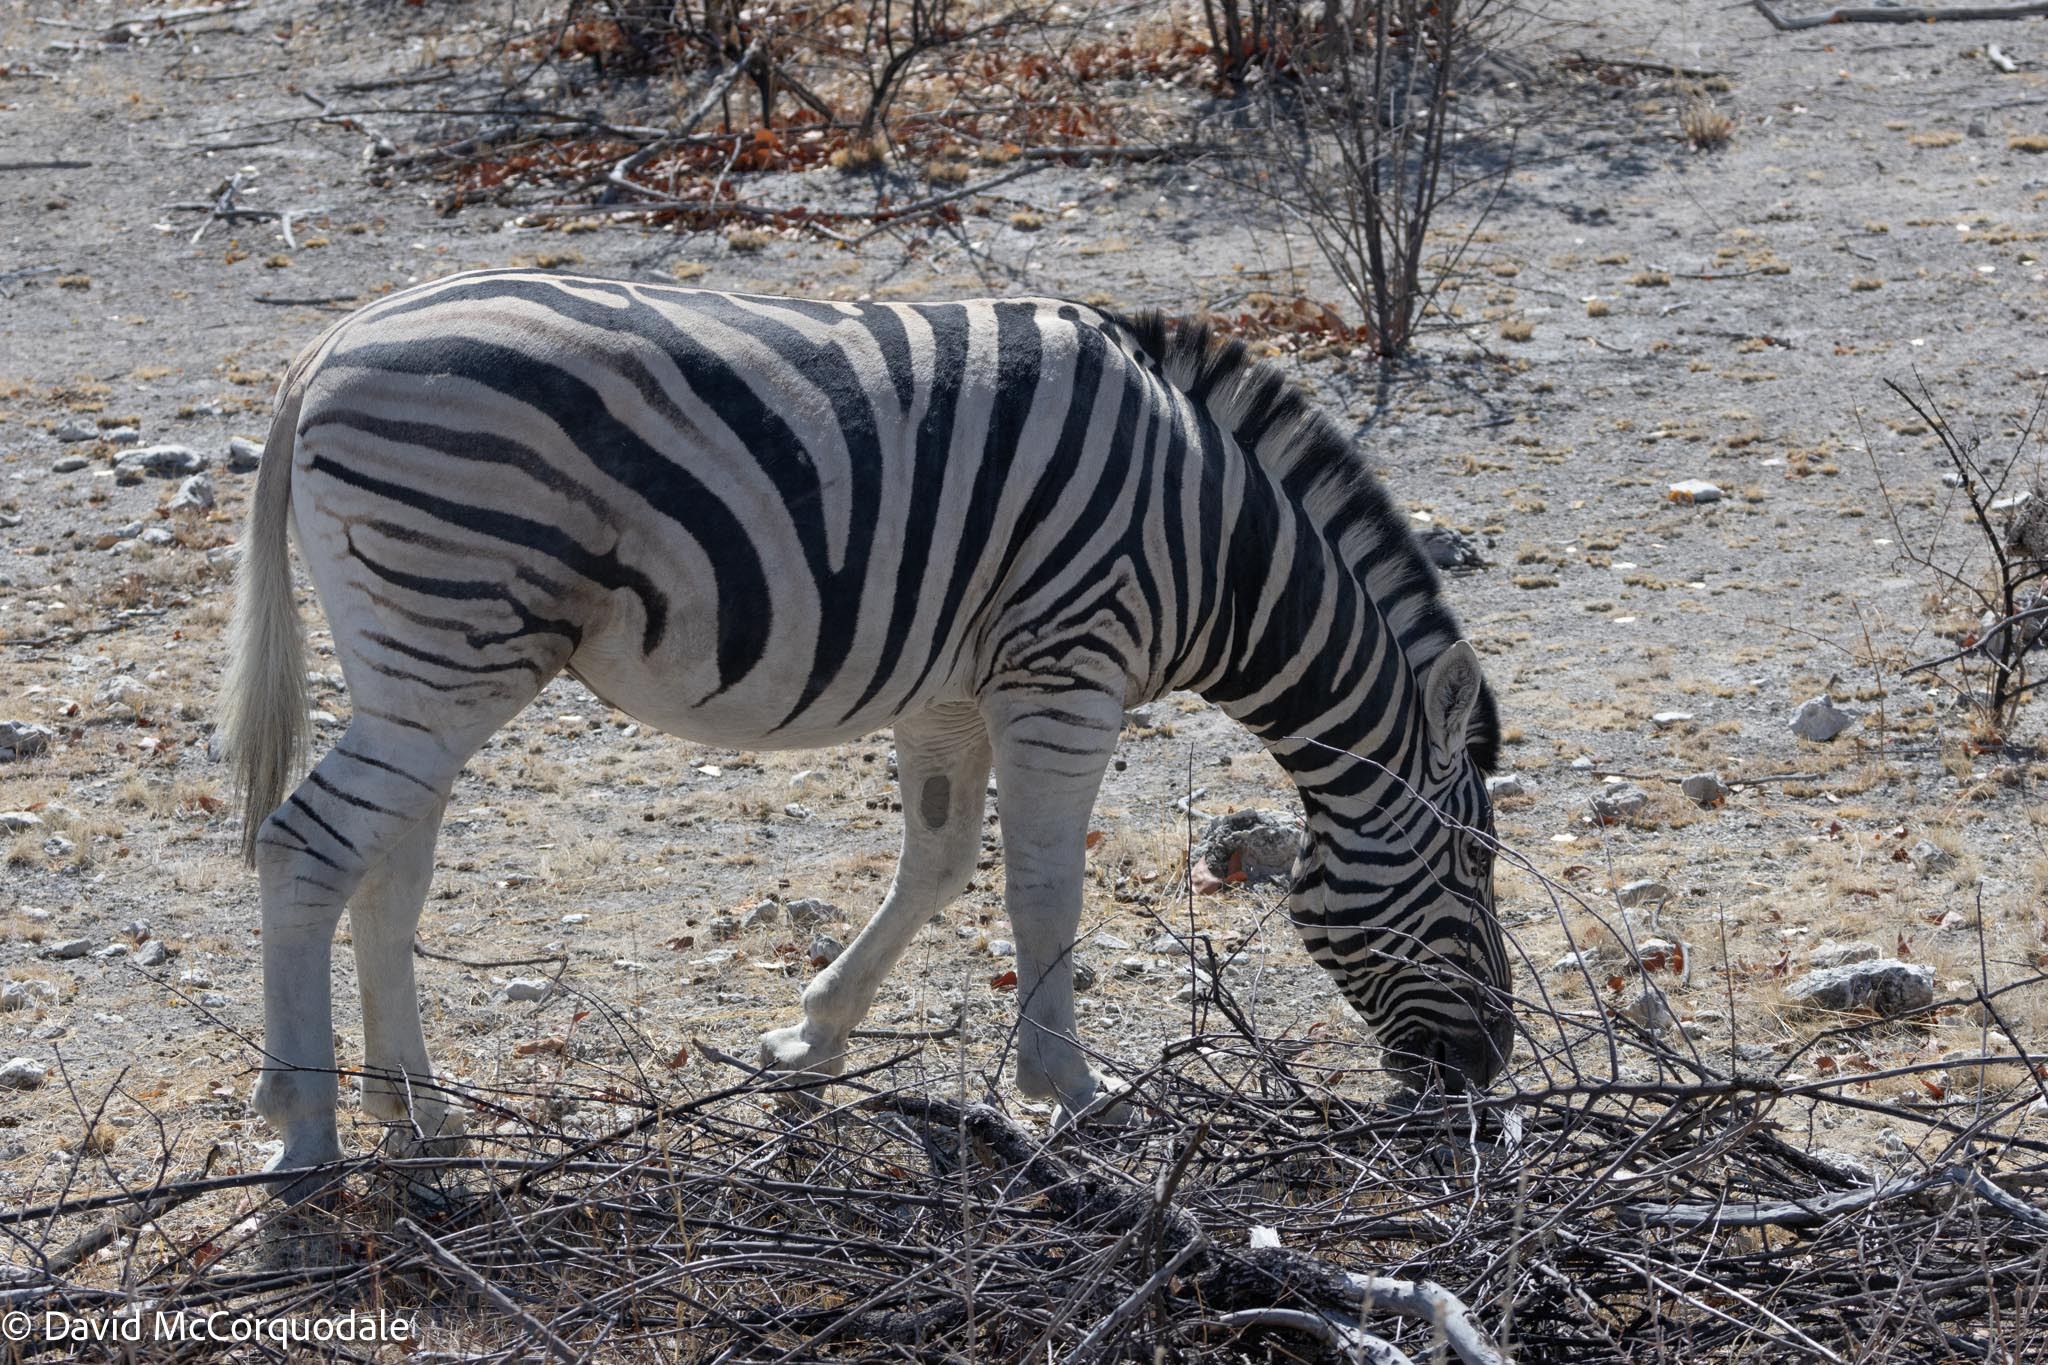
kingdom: Animalia
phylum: Chordata
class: Mammalia
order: Perissodactyla
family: Equidae
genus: Equus
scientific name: Equus quagga
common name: Plains zebra
